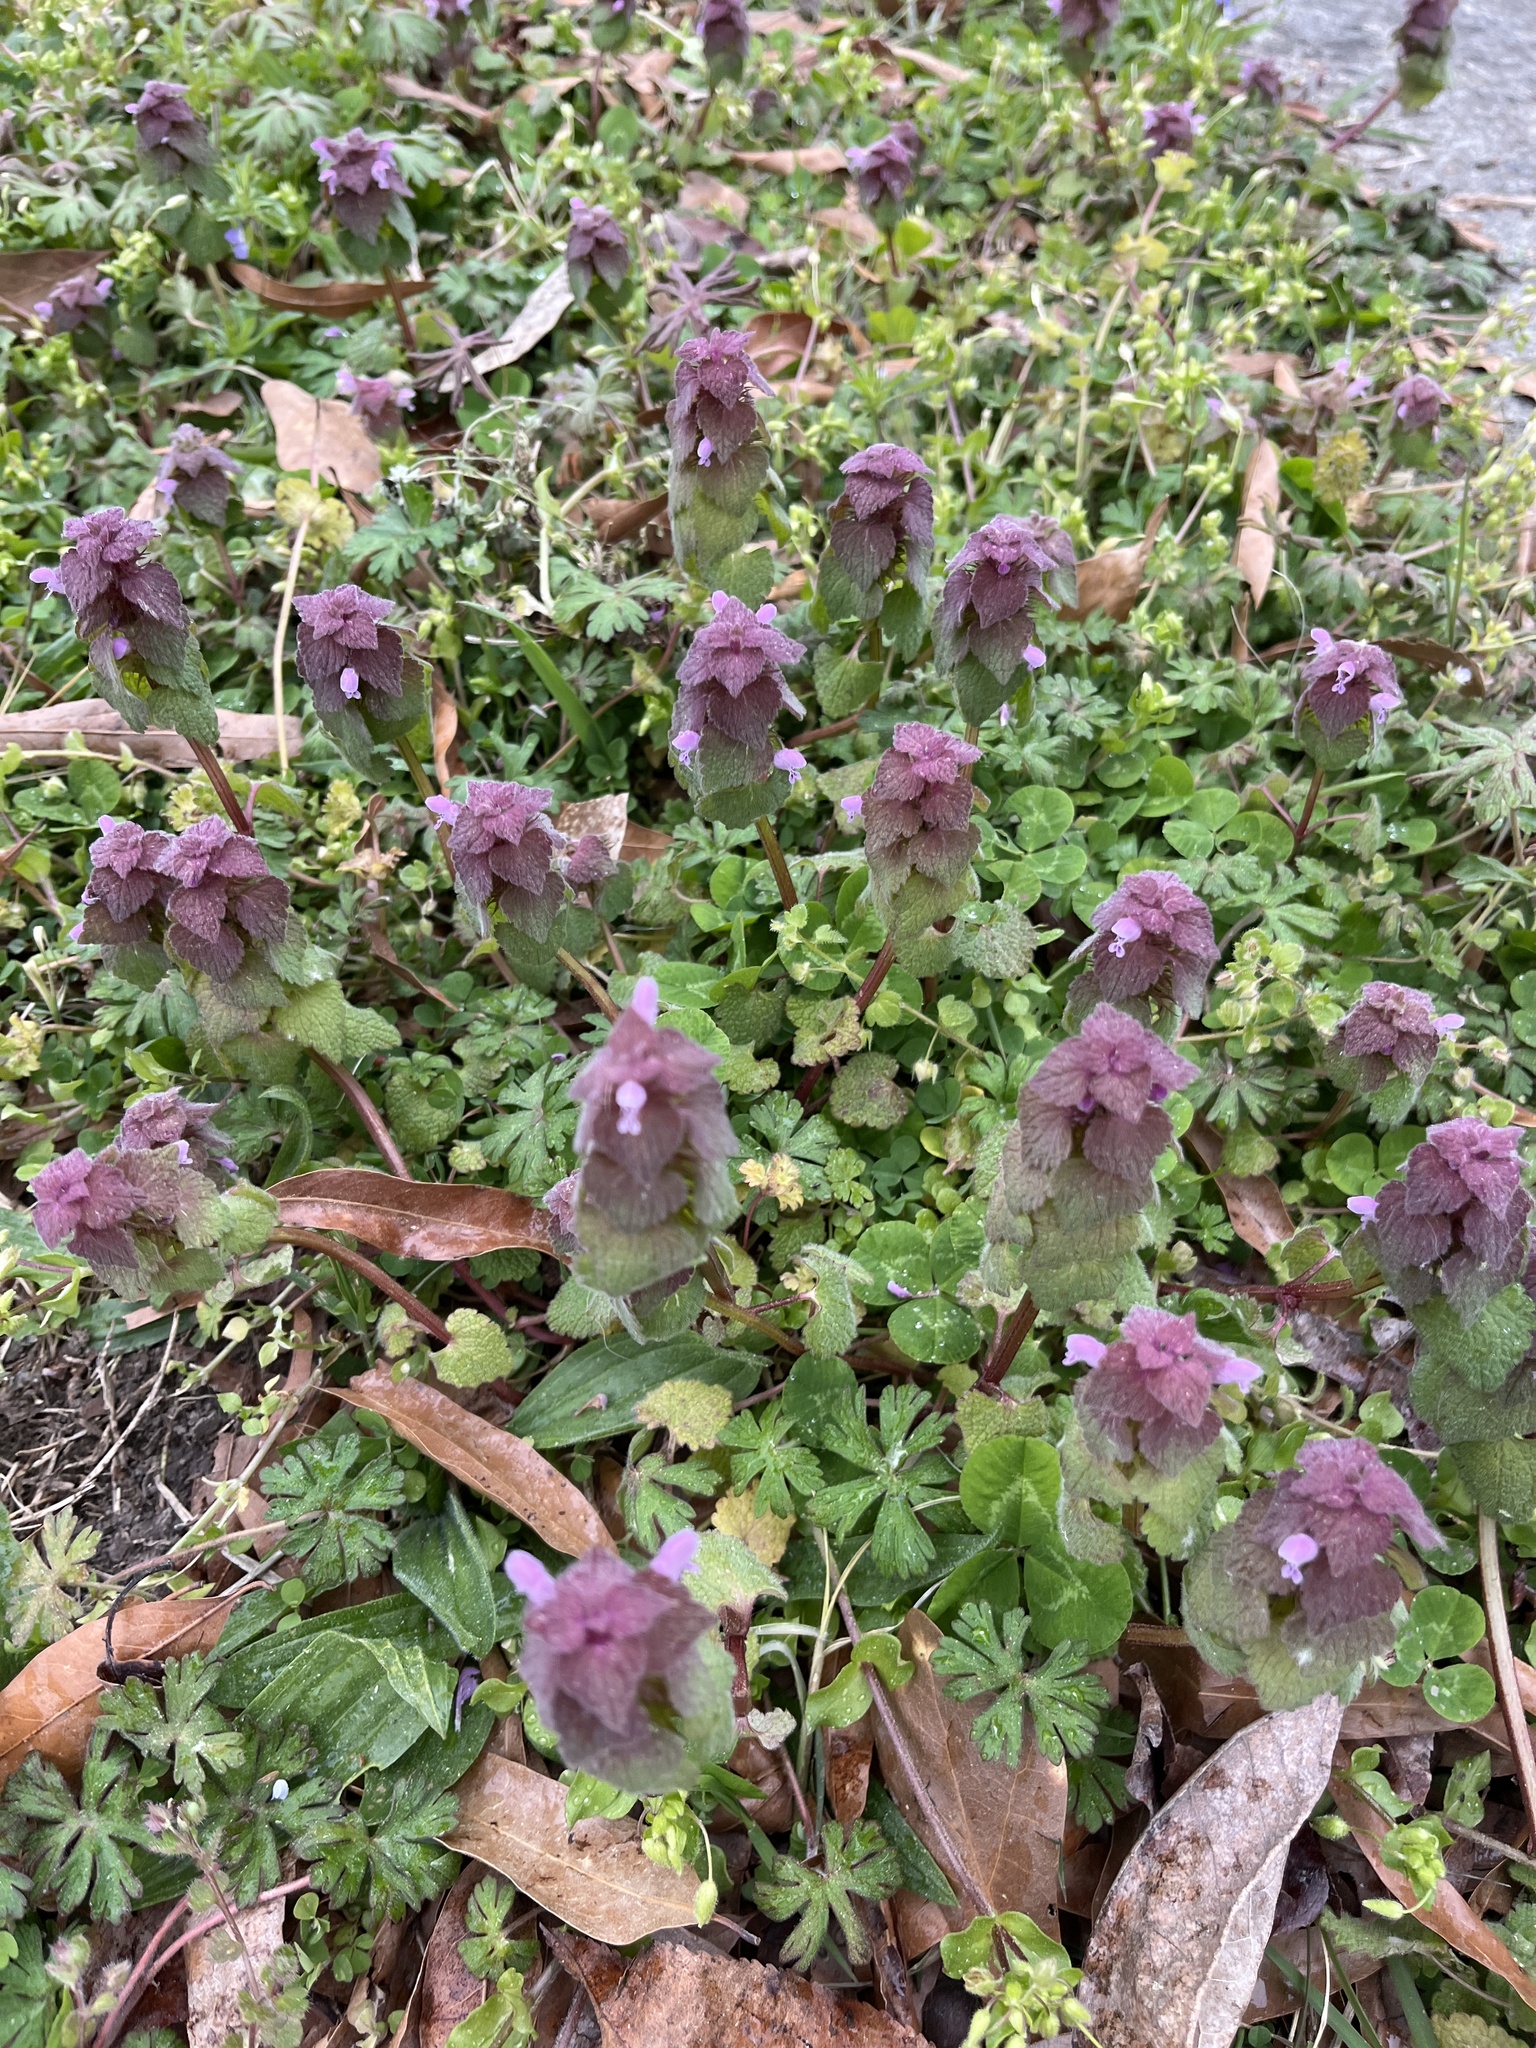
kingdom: Plantae
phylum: Tracheophyta
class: Magnoliopsida
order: Lamiales
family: Lamiaceae
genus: Lamium
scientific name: Lamium purpureum
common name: Red dead-nettle
